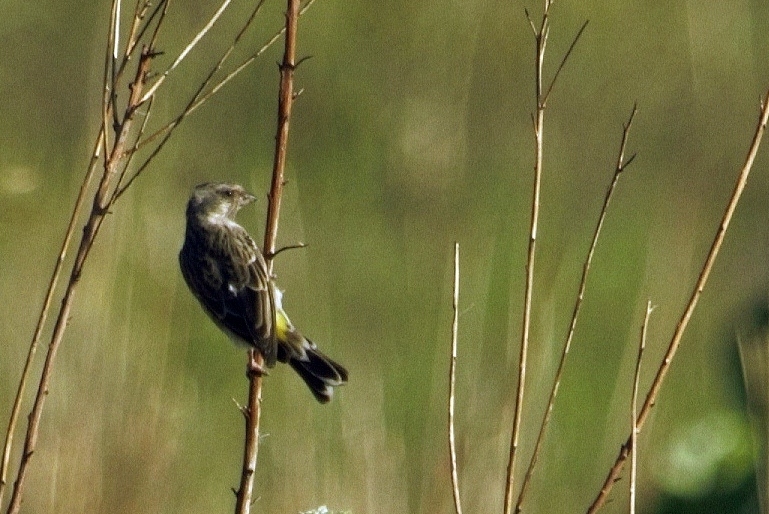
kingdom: Animalia
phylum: Chordata
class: Aves
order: Passeriformes
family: Fringillidae
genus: Crithagra
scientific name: Crithagra atrogularis
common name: Black-throated canary
